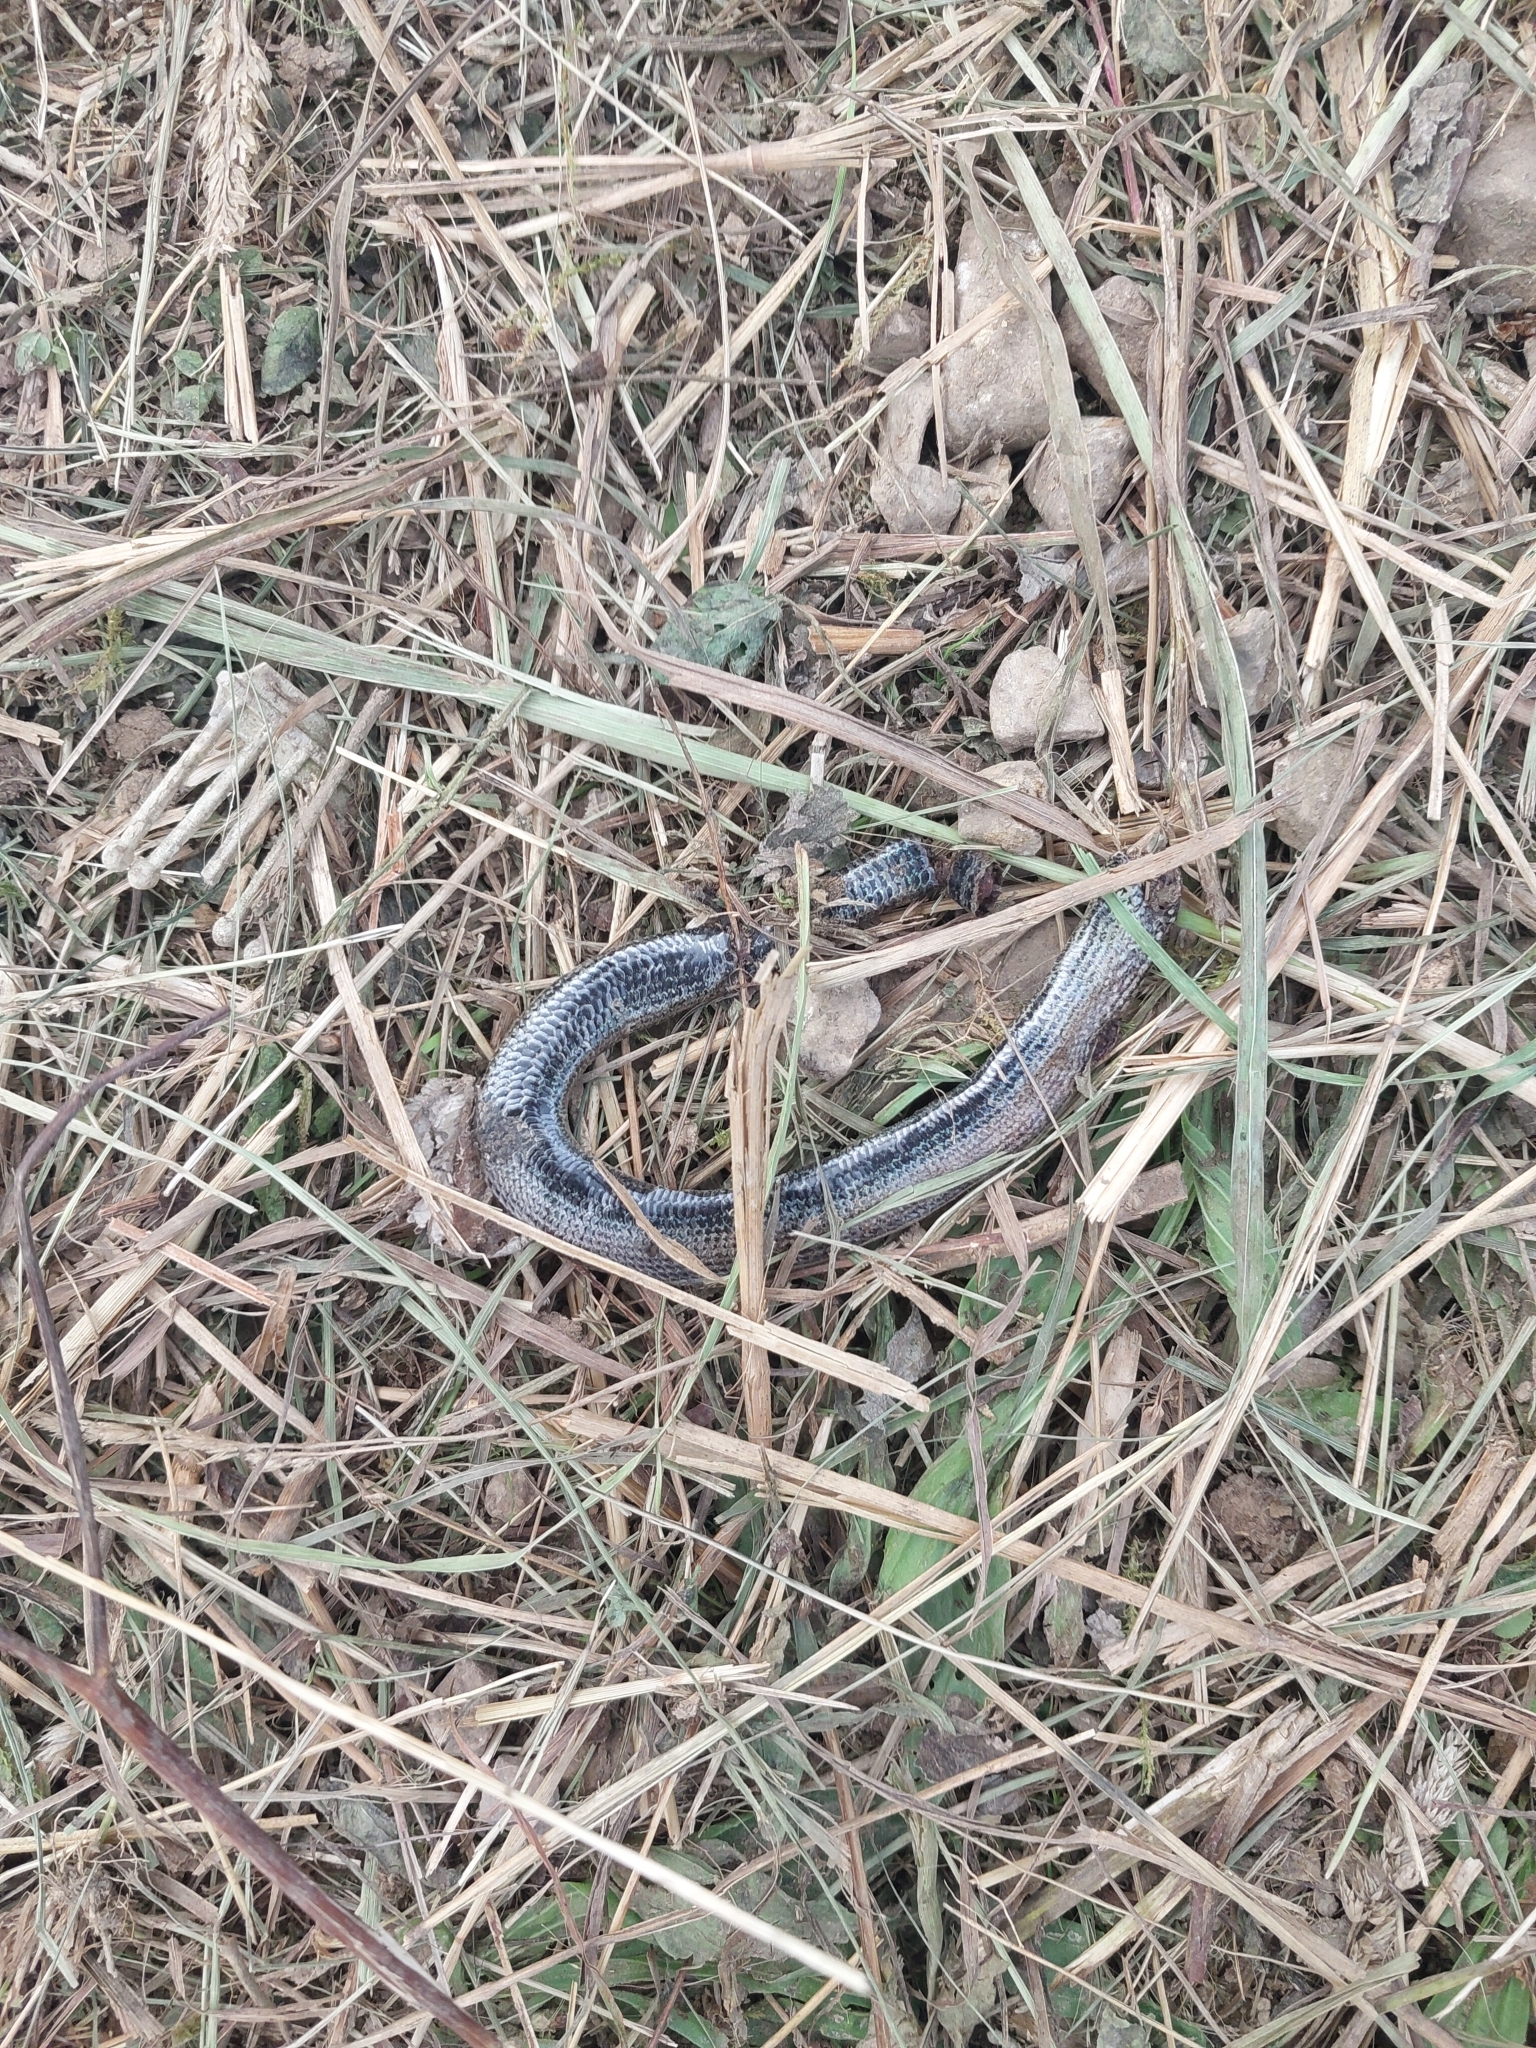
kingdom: Animalia
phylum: Chordata
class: Squamata
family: Anguidae
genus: Anguis
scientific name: Anguis fragilis
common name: Slow worm
